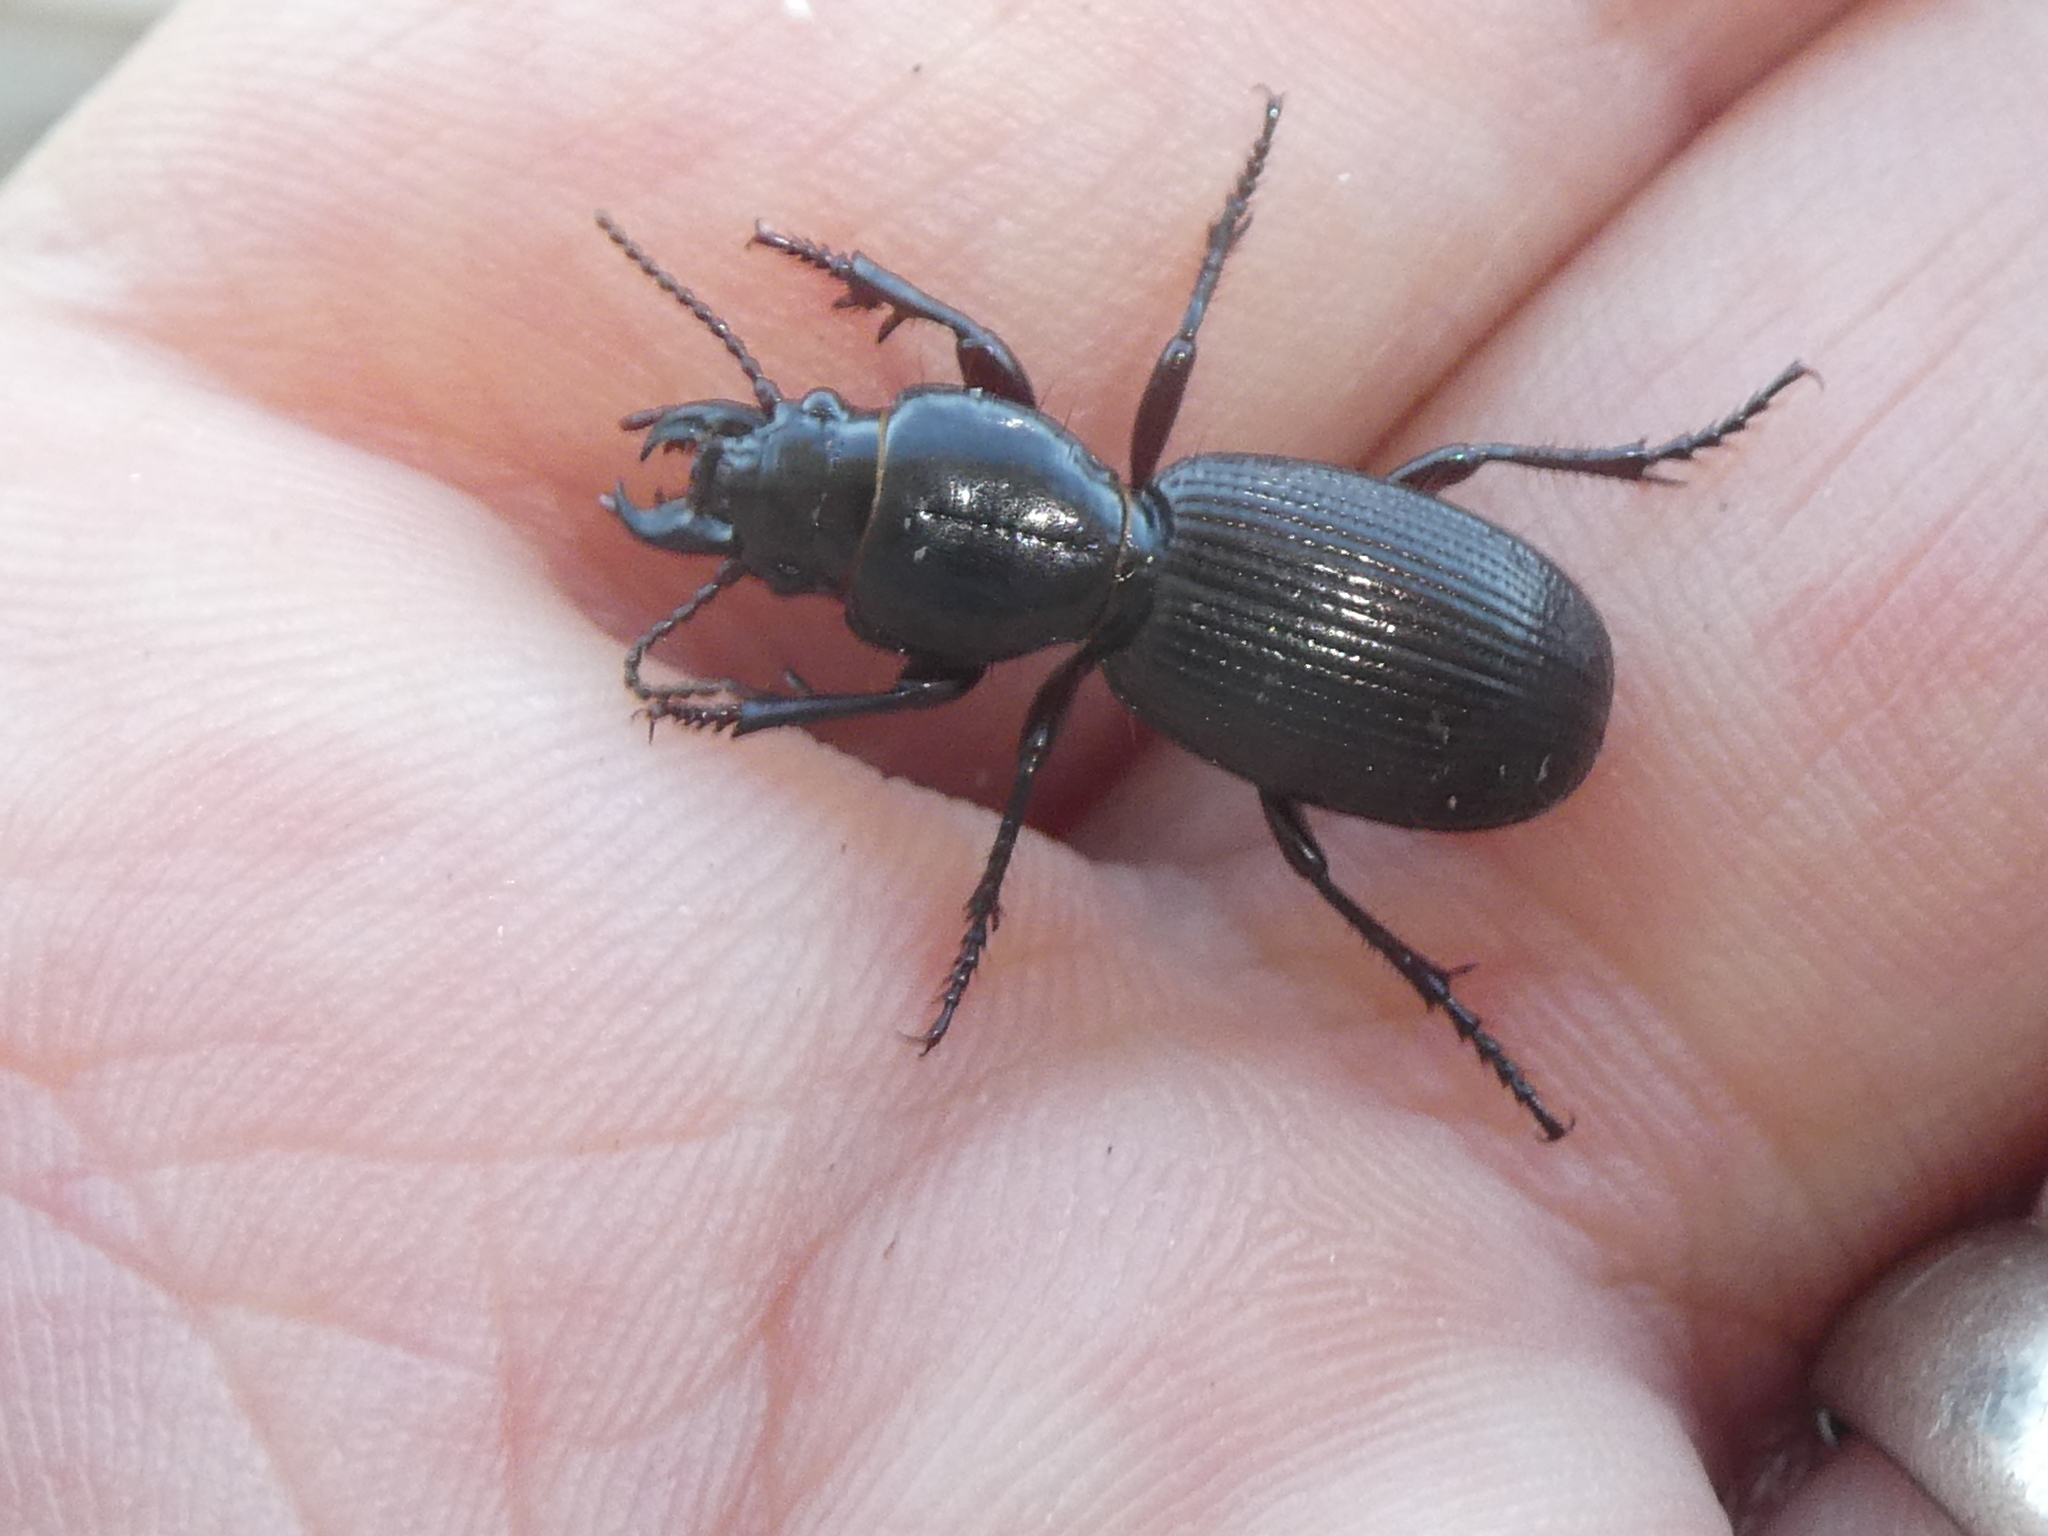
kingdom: Animalia
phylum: Arthropoda
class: Insecta
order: Coleoptera
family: Carabidae
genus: Mecodema
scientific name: Mecodema oblongum
